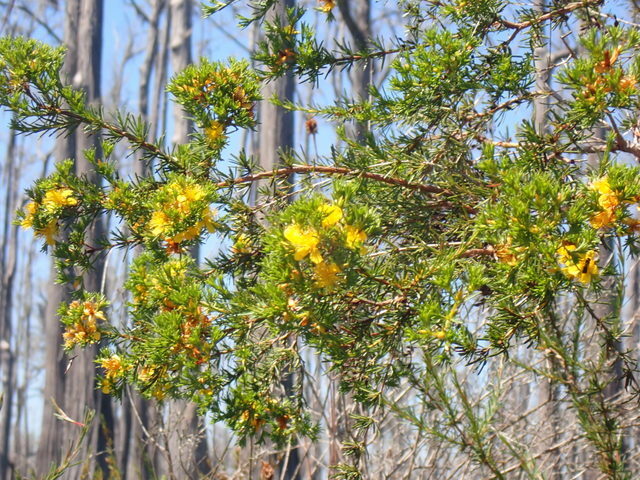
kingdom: Plantae
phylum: Tracheophyta
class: Magnoliopsida
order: Malpighiales
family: Hypericaceae
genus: Hypericum
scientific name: Hypericum fasciculatum
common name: Peelbark st. john's wort
